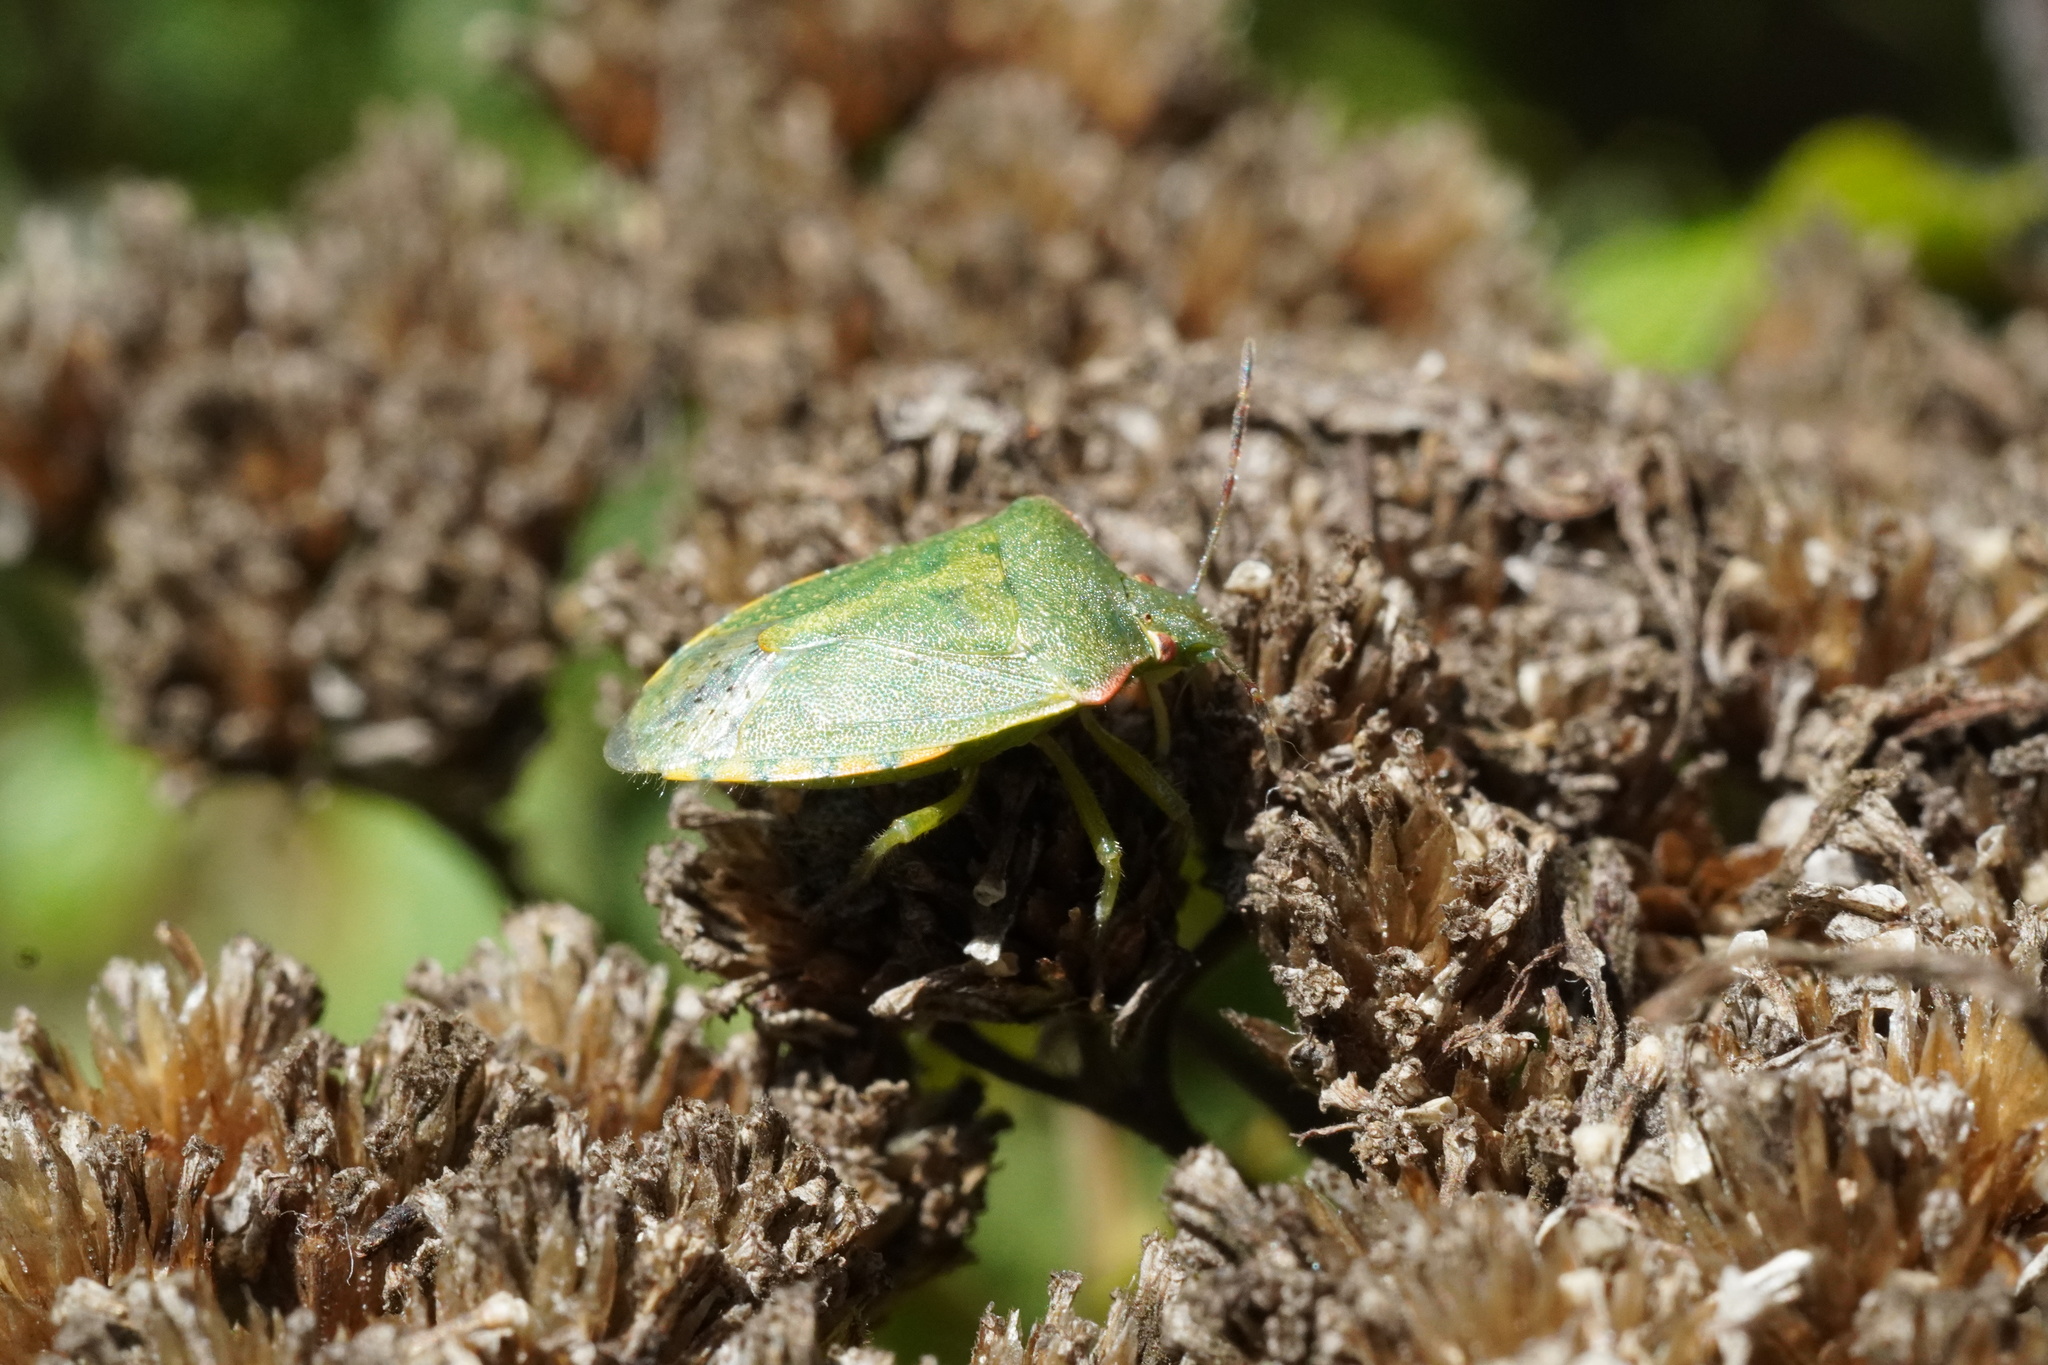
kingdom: Animalia
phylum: Arthropoda
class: Insecta
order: Hemiptera
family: Pentatomidae
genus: Thyanta
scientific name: Thyanta pallidovirens
